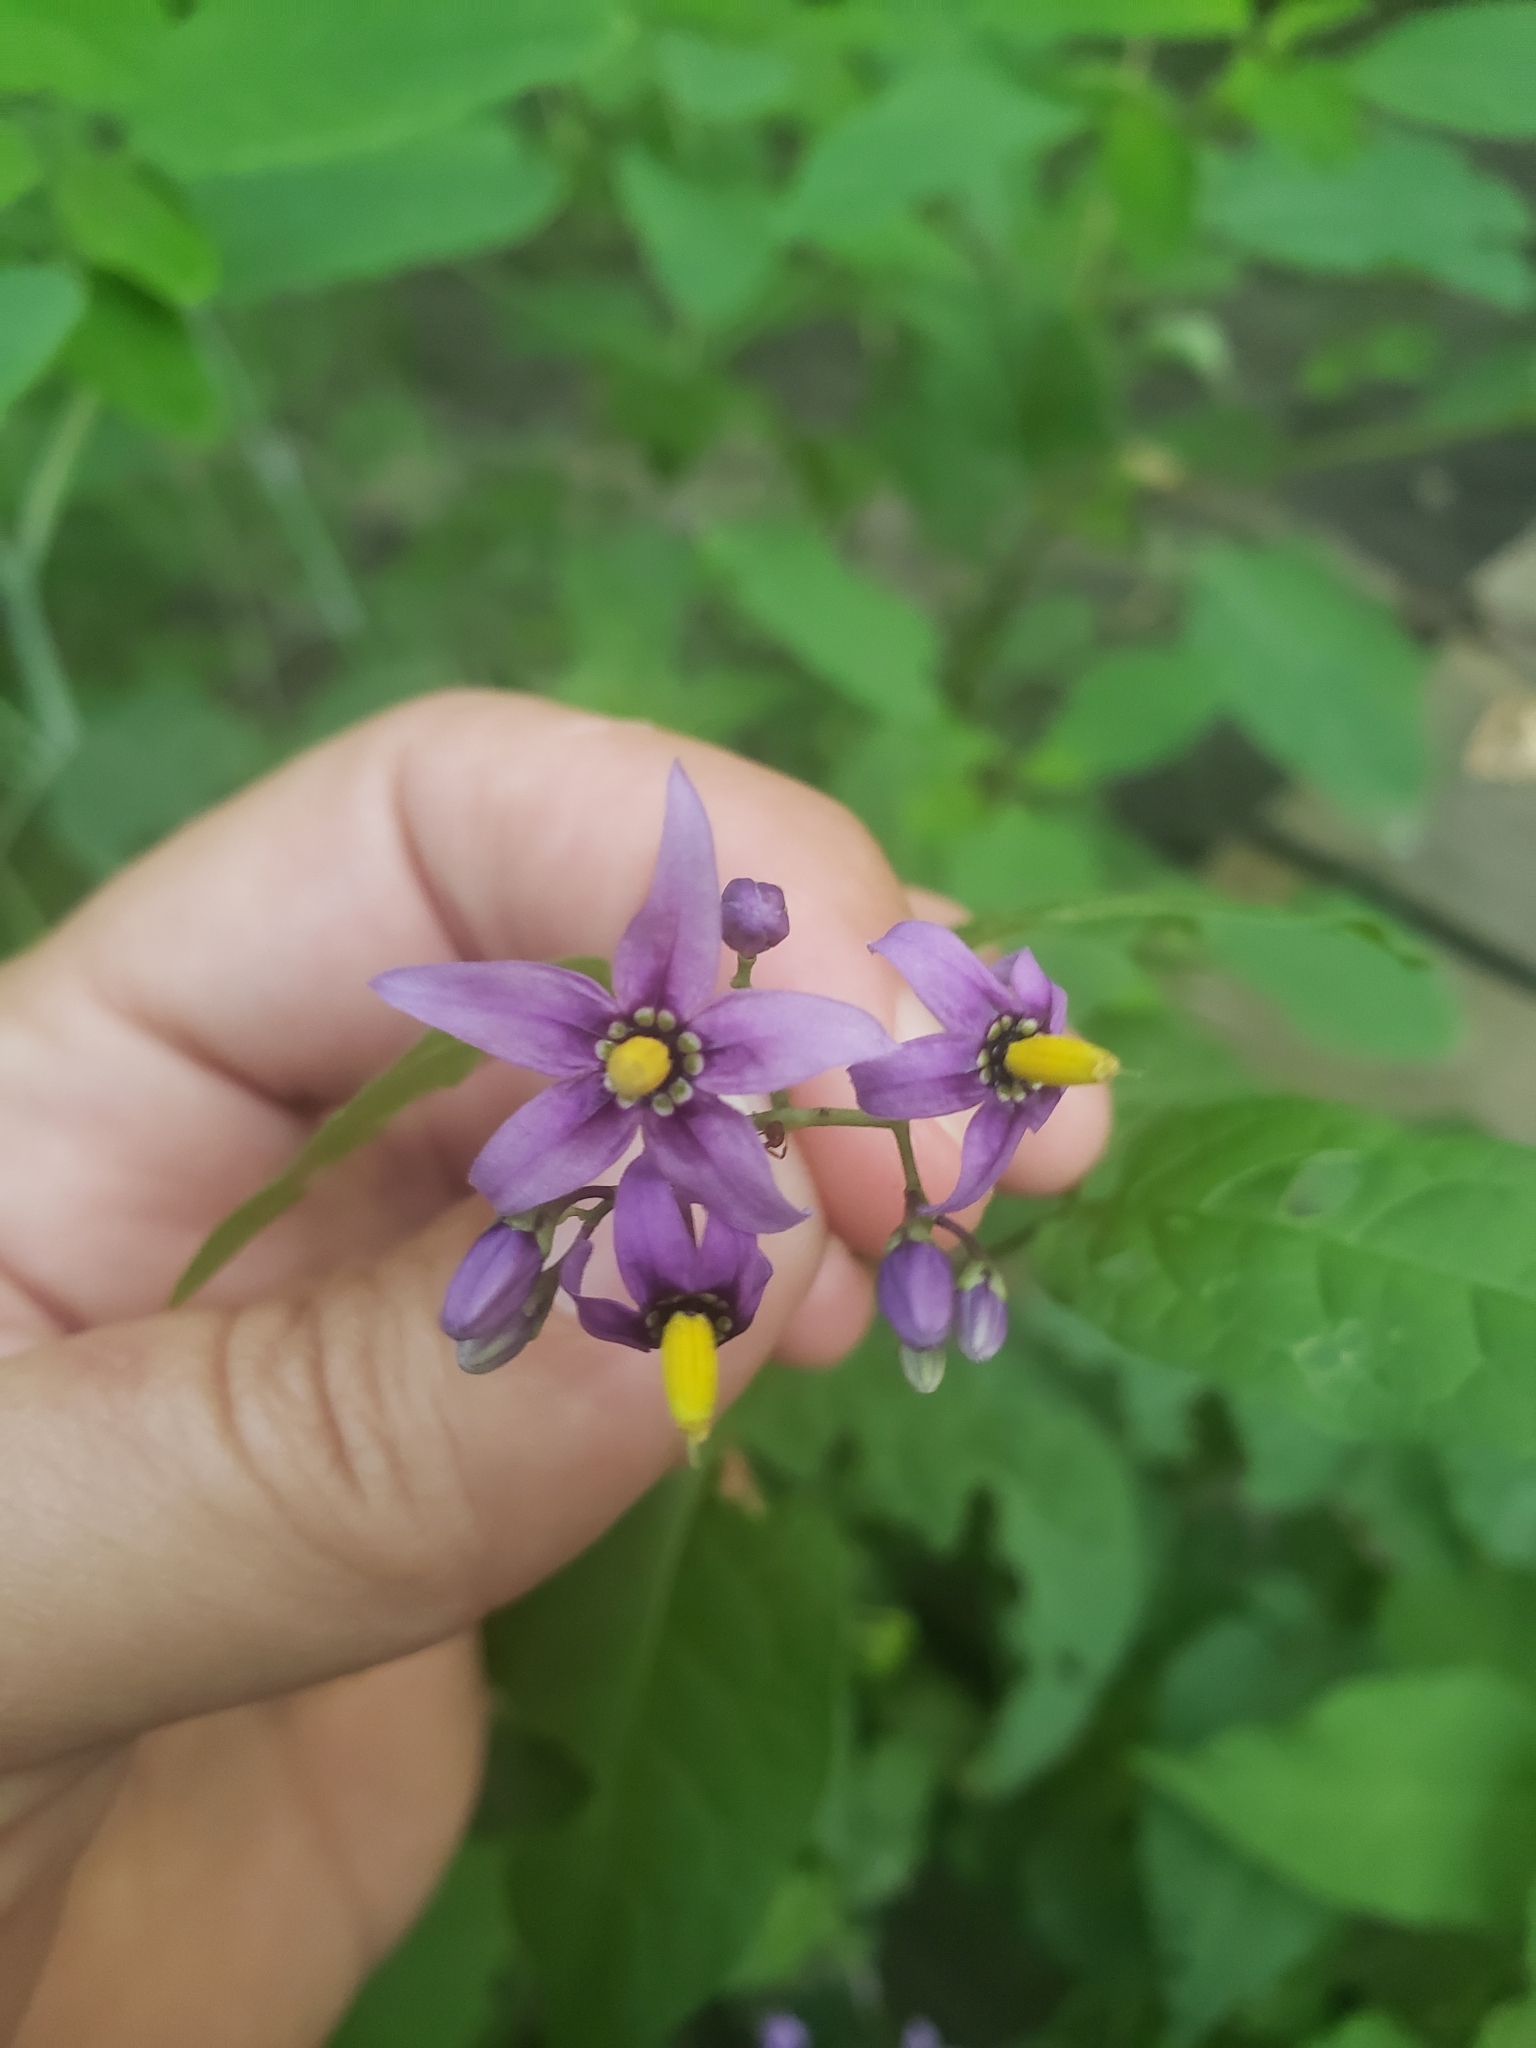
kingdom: Plantae
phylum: Tracheophyta
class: Magnoliopsida
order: Solanales
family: Solanaceae
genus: Solanum
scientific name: Solanum dulcamara
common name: Climbing nightshade
